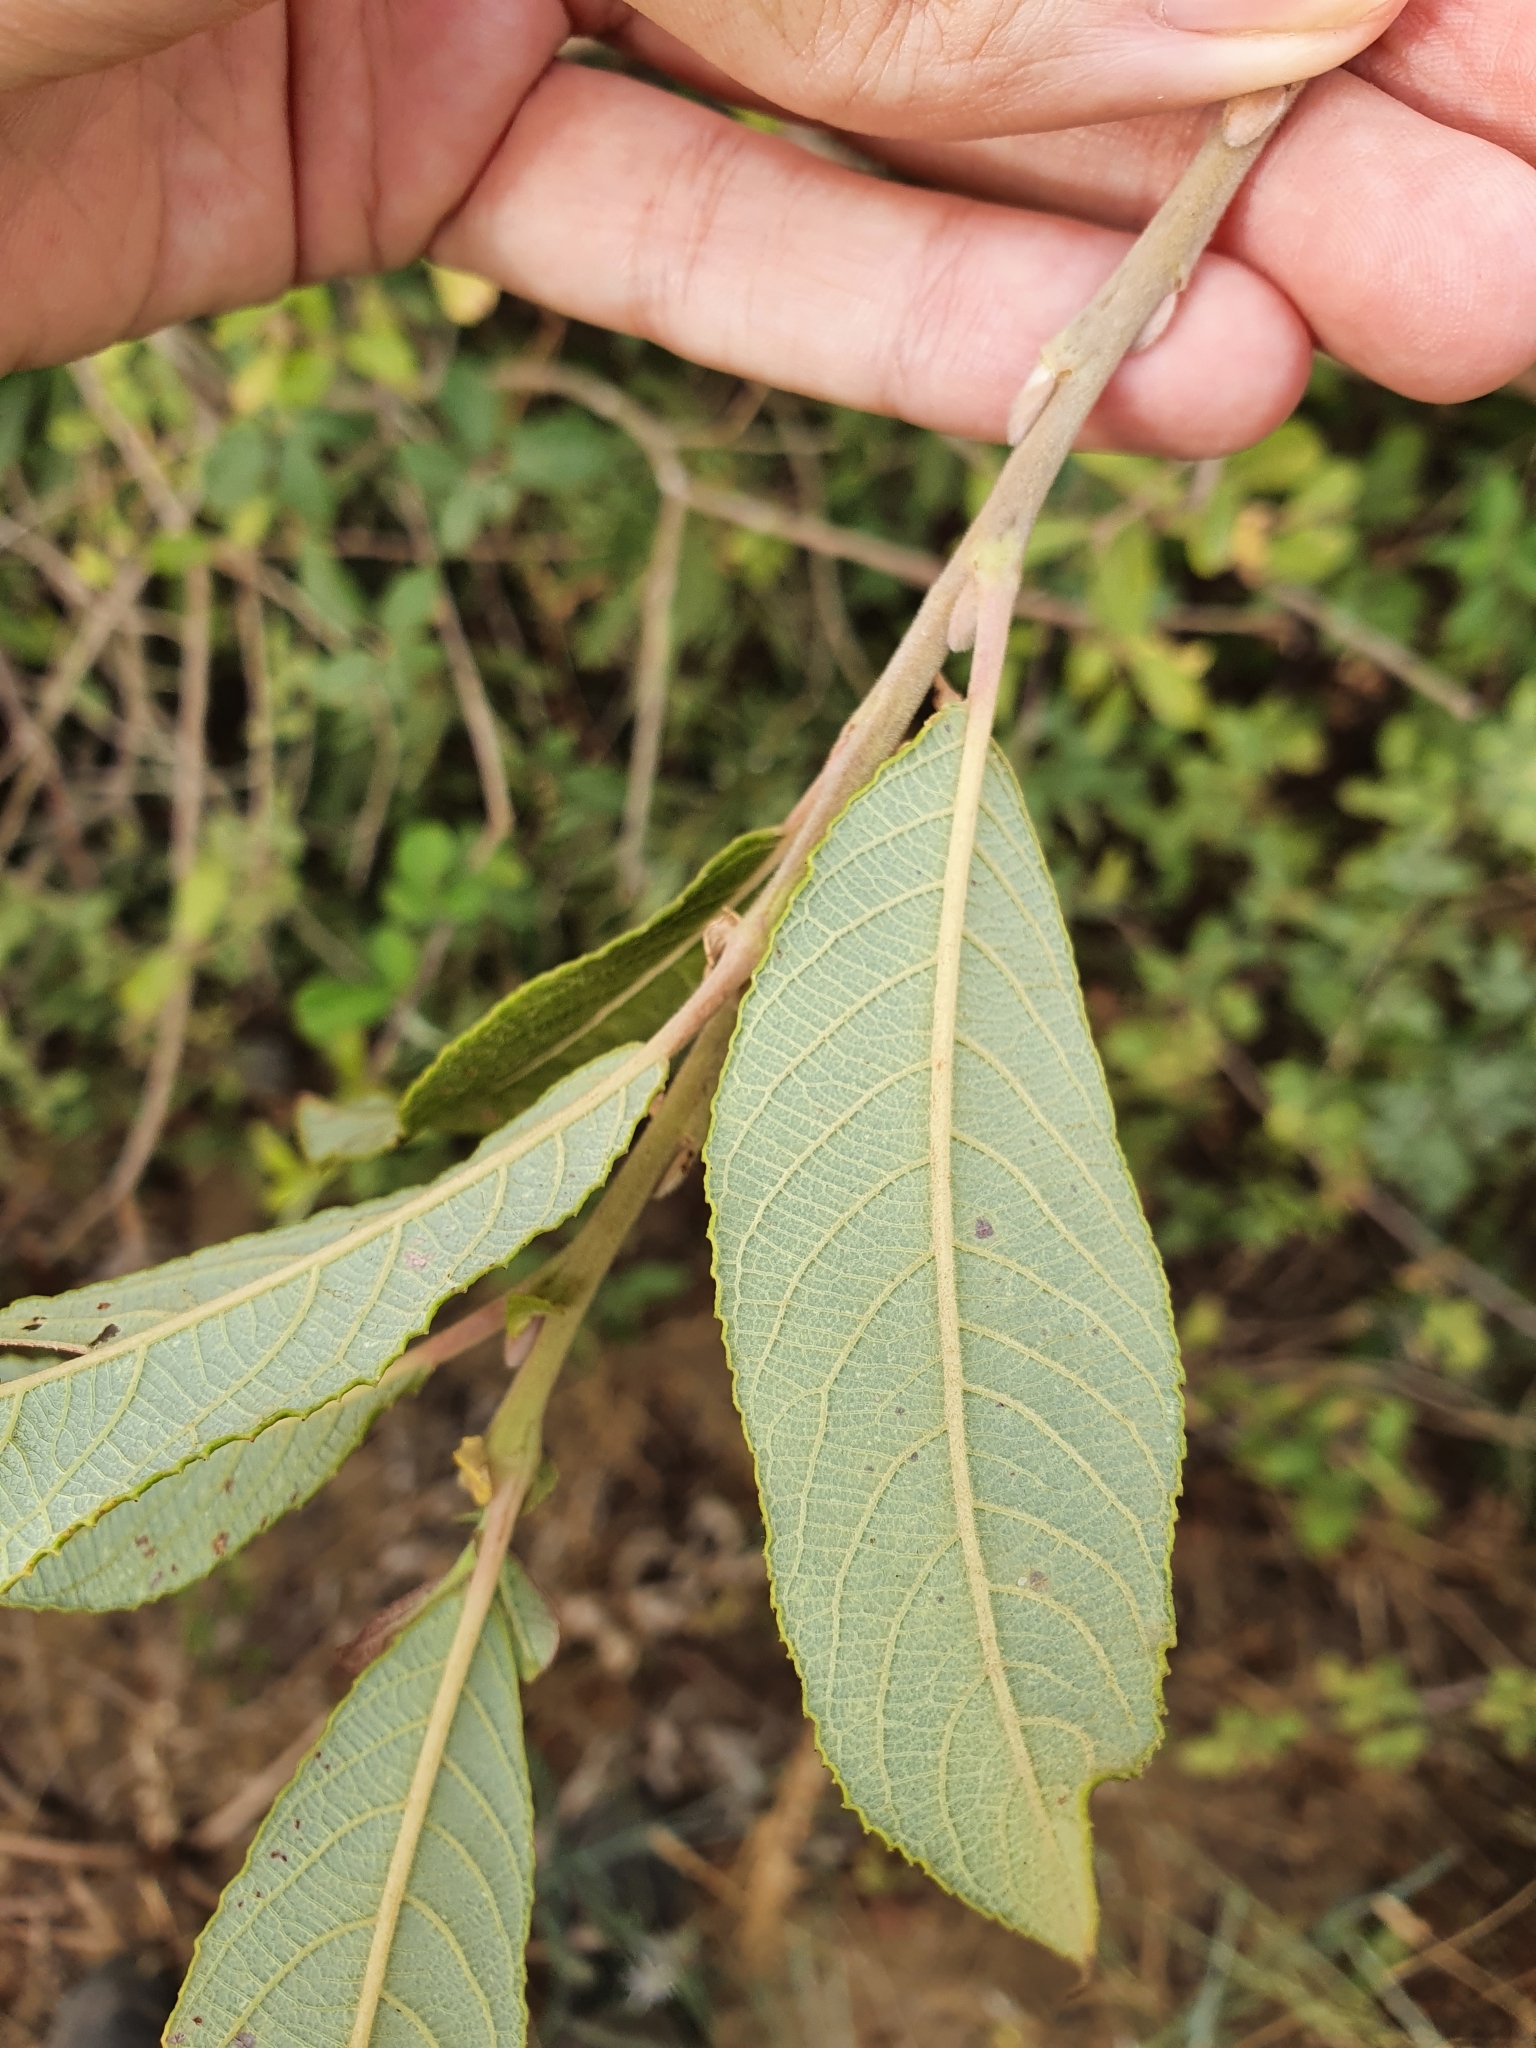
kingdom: Plantae
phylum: Tracheophyta
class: Magnoliopsida
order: Malpighiales
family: Salicaceae
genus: Salix
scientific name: Salix pedicellata
